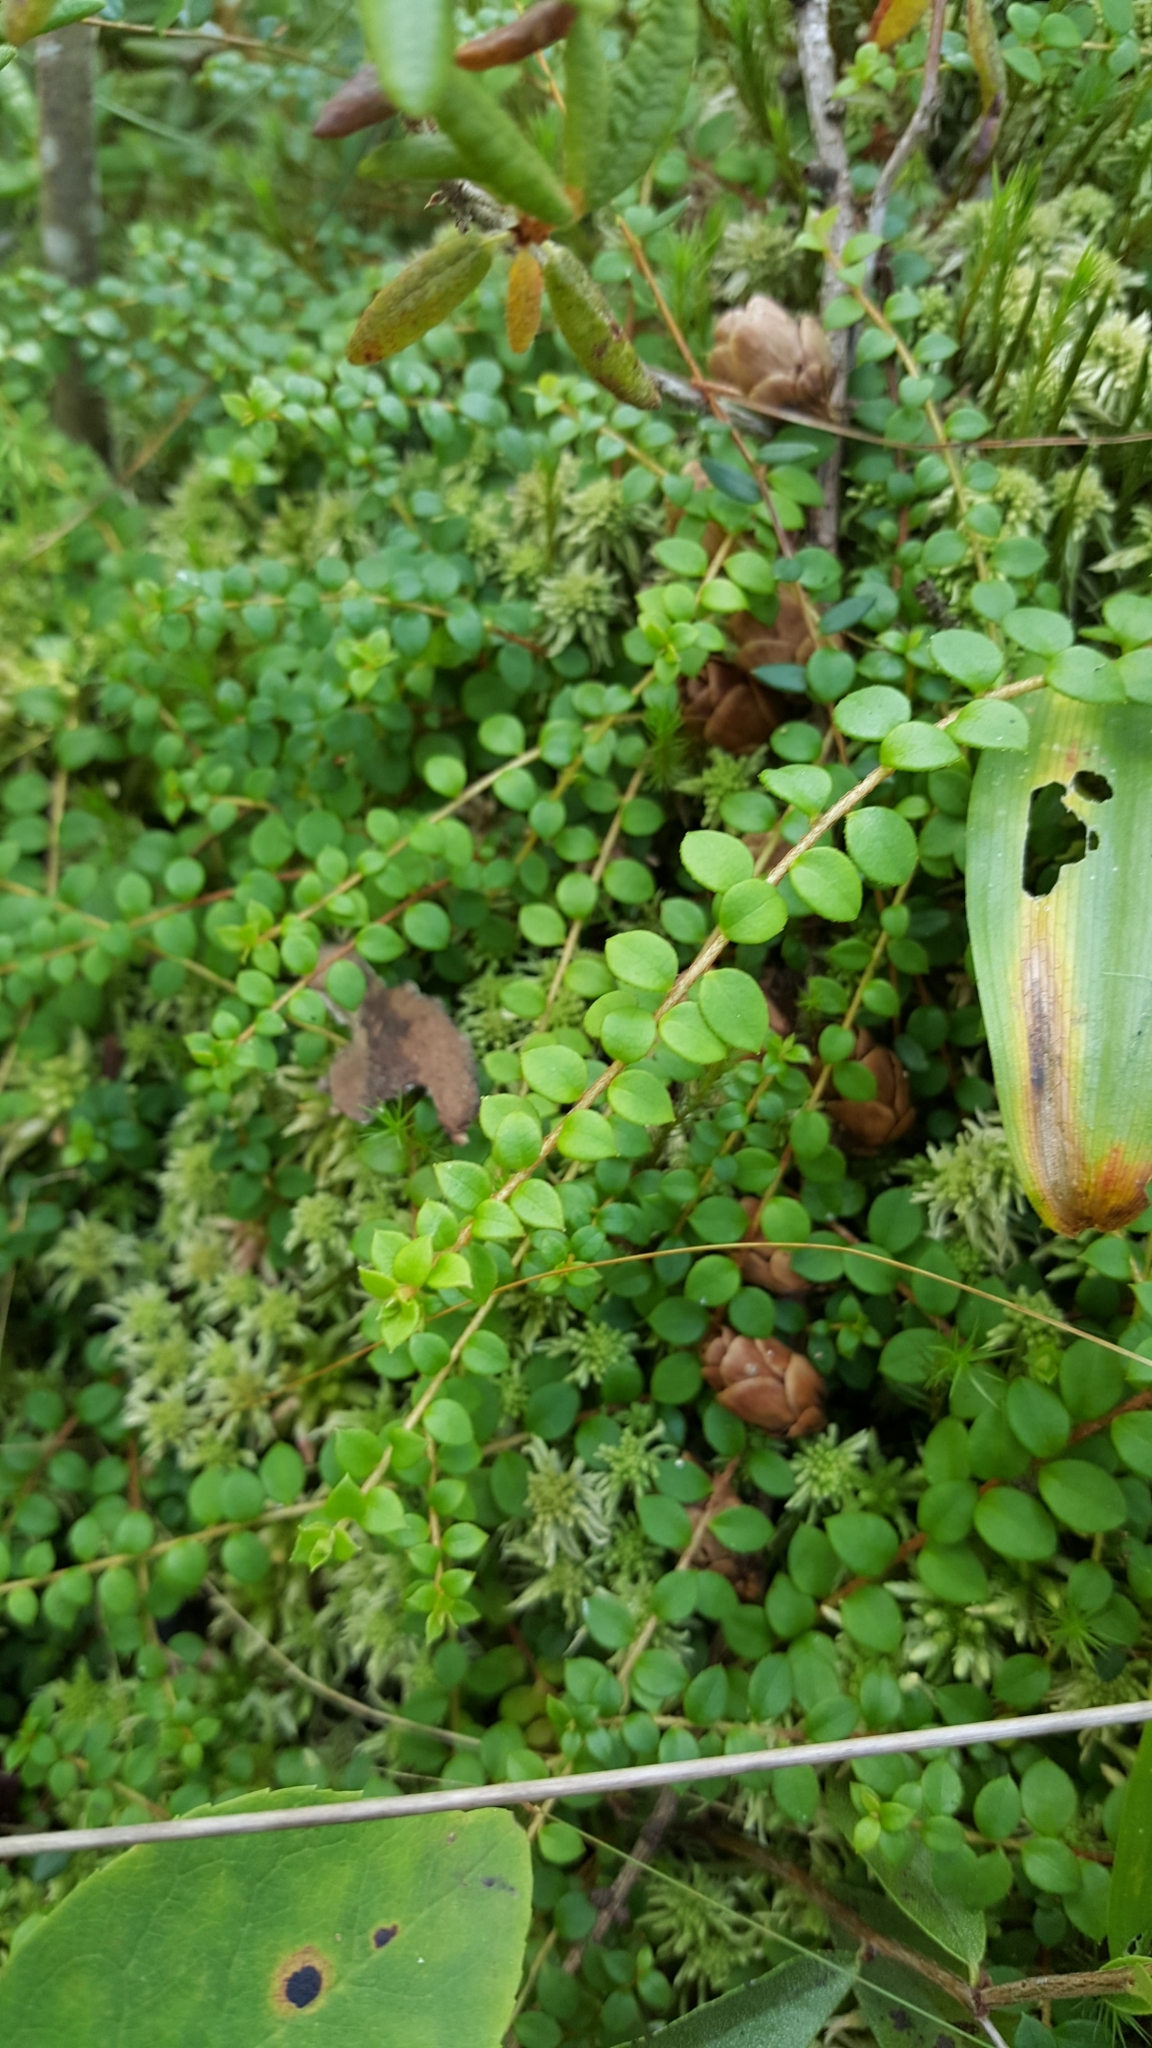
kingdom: Plantae
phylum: Tracheophyta
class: Magnoliopsida
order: Ericales
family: Ericaceae
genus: Gaultheria
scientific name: Gaultheria hispidula
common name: Cancer wintergreen
